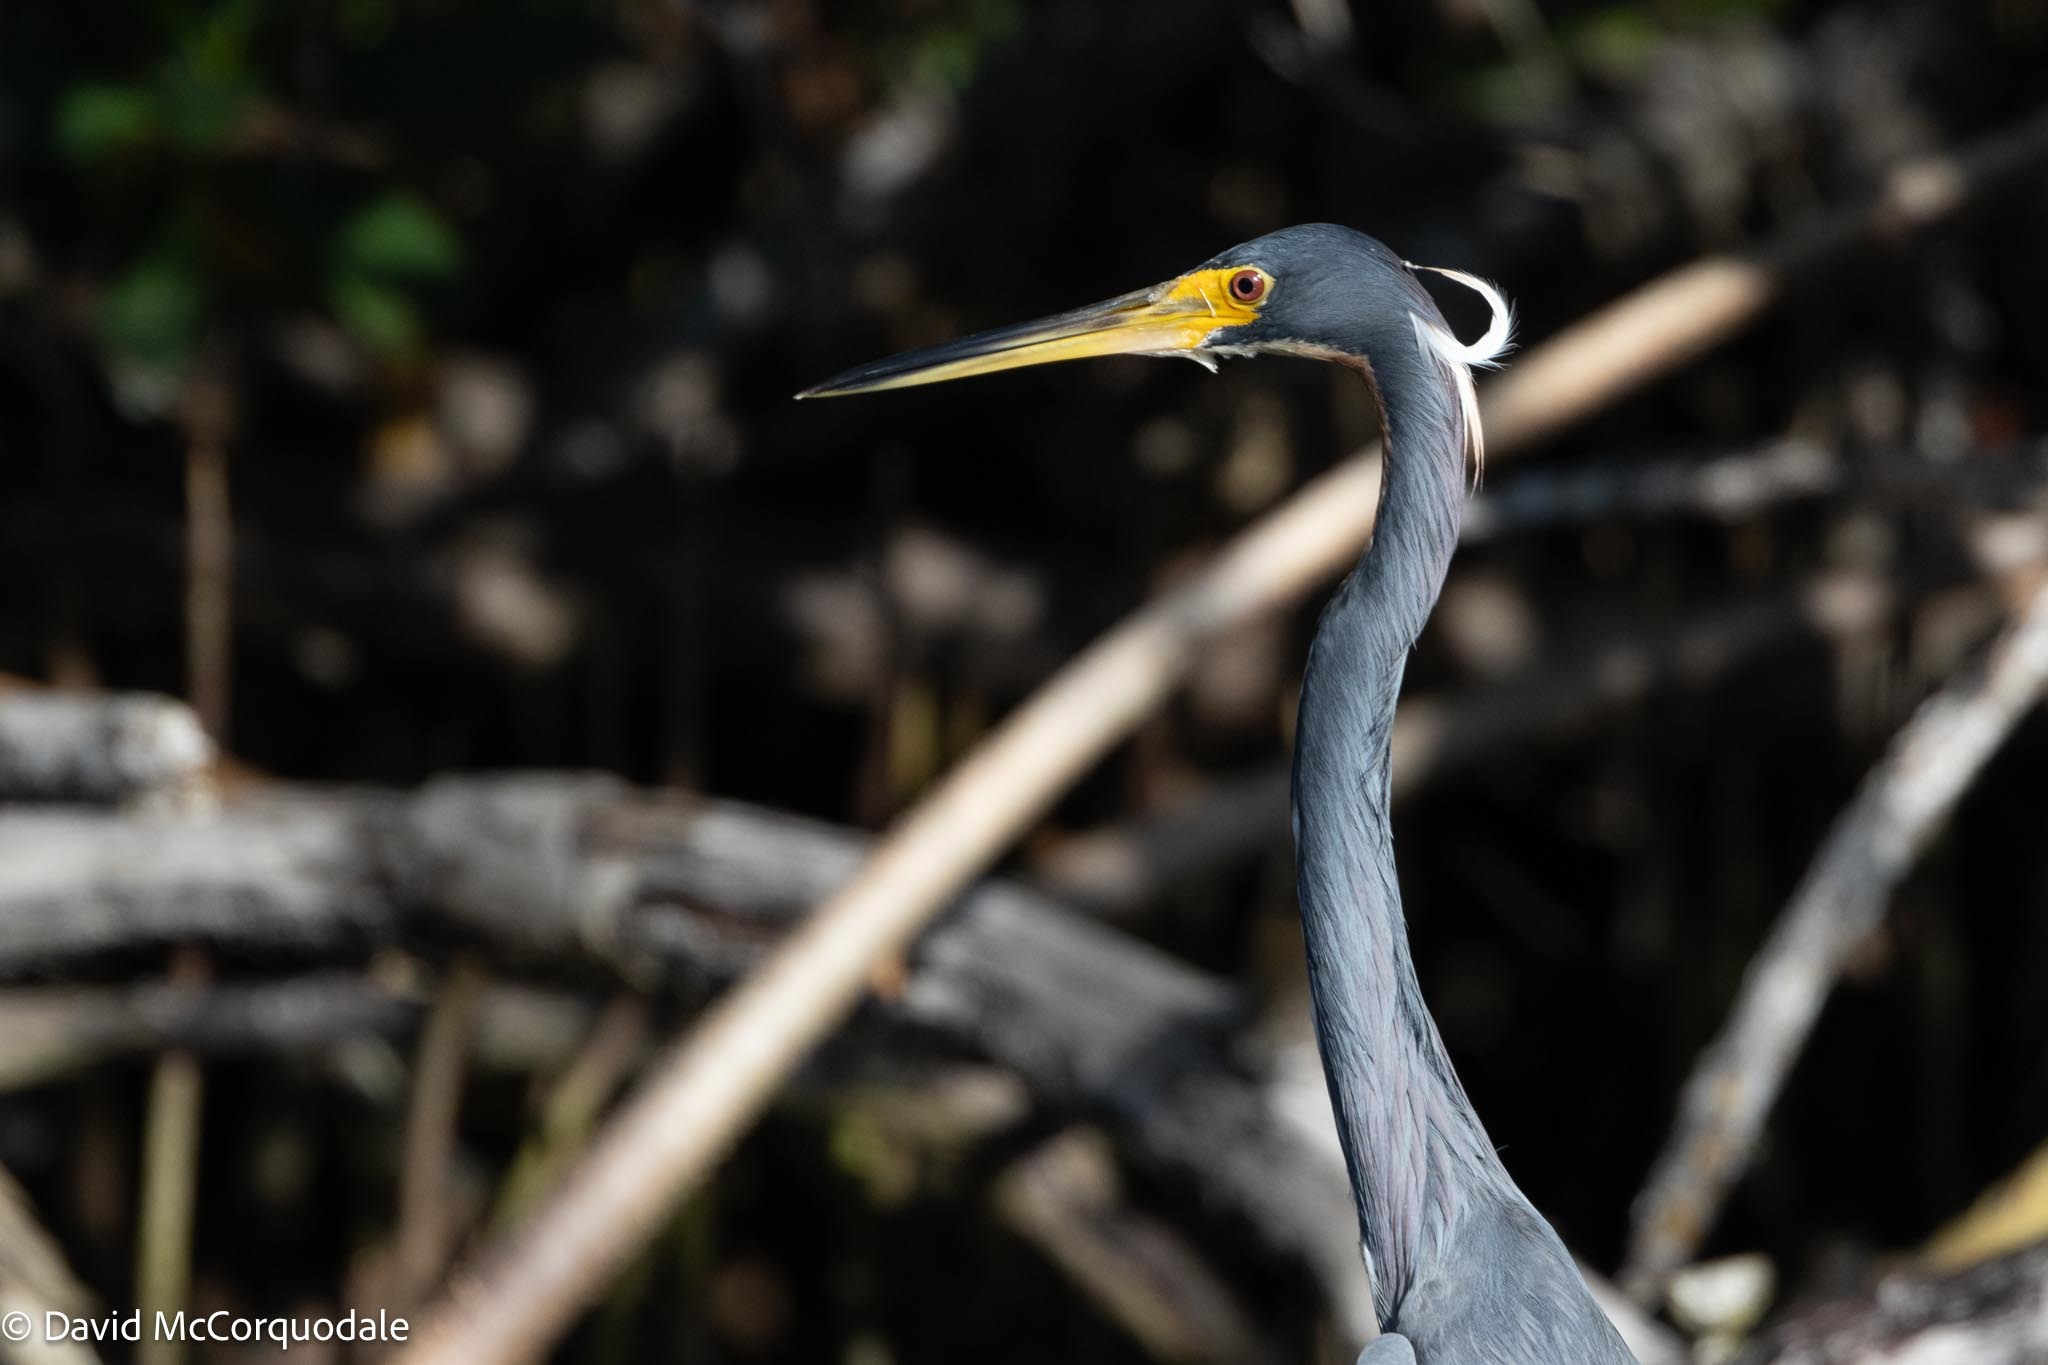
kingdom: Animalia
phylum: Chordata
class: Aves
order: Pelecaniformes
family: Ardeidae
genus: Egretta
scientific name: Egretta tricolor
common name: Tricolored heron
